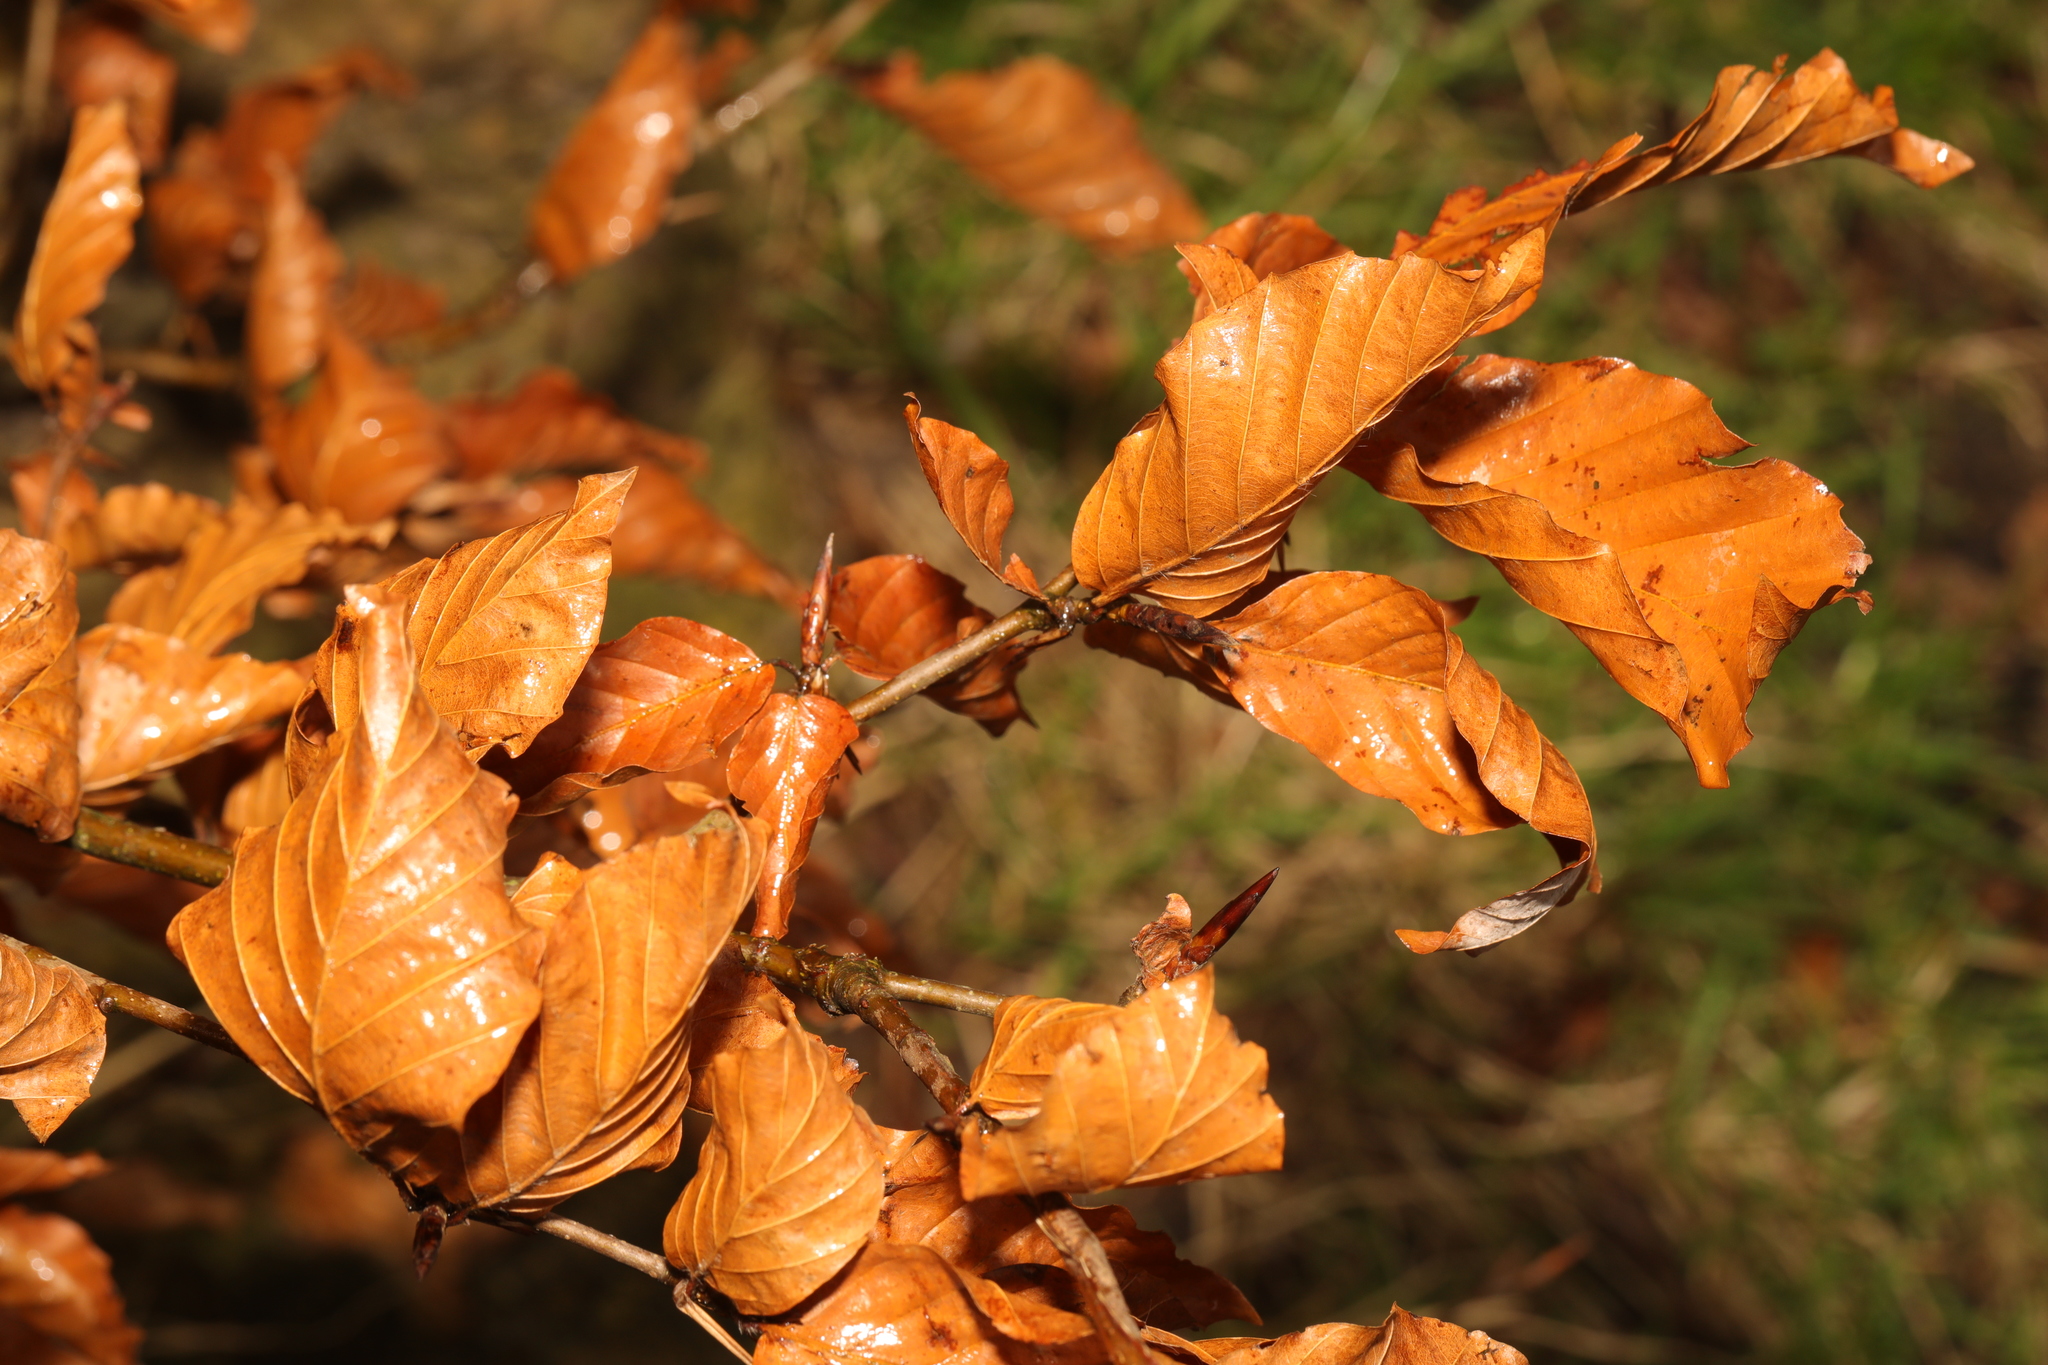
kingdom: Plantae
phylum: Tracheophyta
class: Magnoliopsida
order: Fagales
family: Fagaceae
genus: Fagus
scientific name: Fagus sylvatica
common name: Beech
